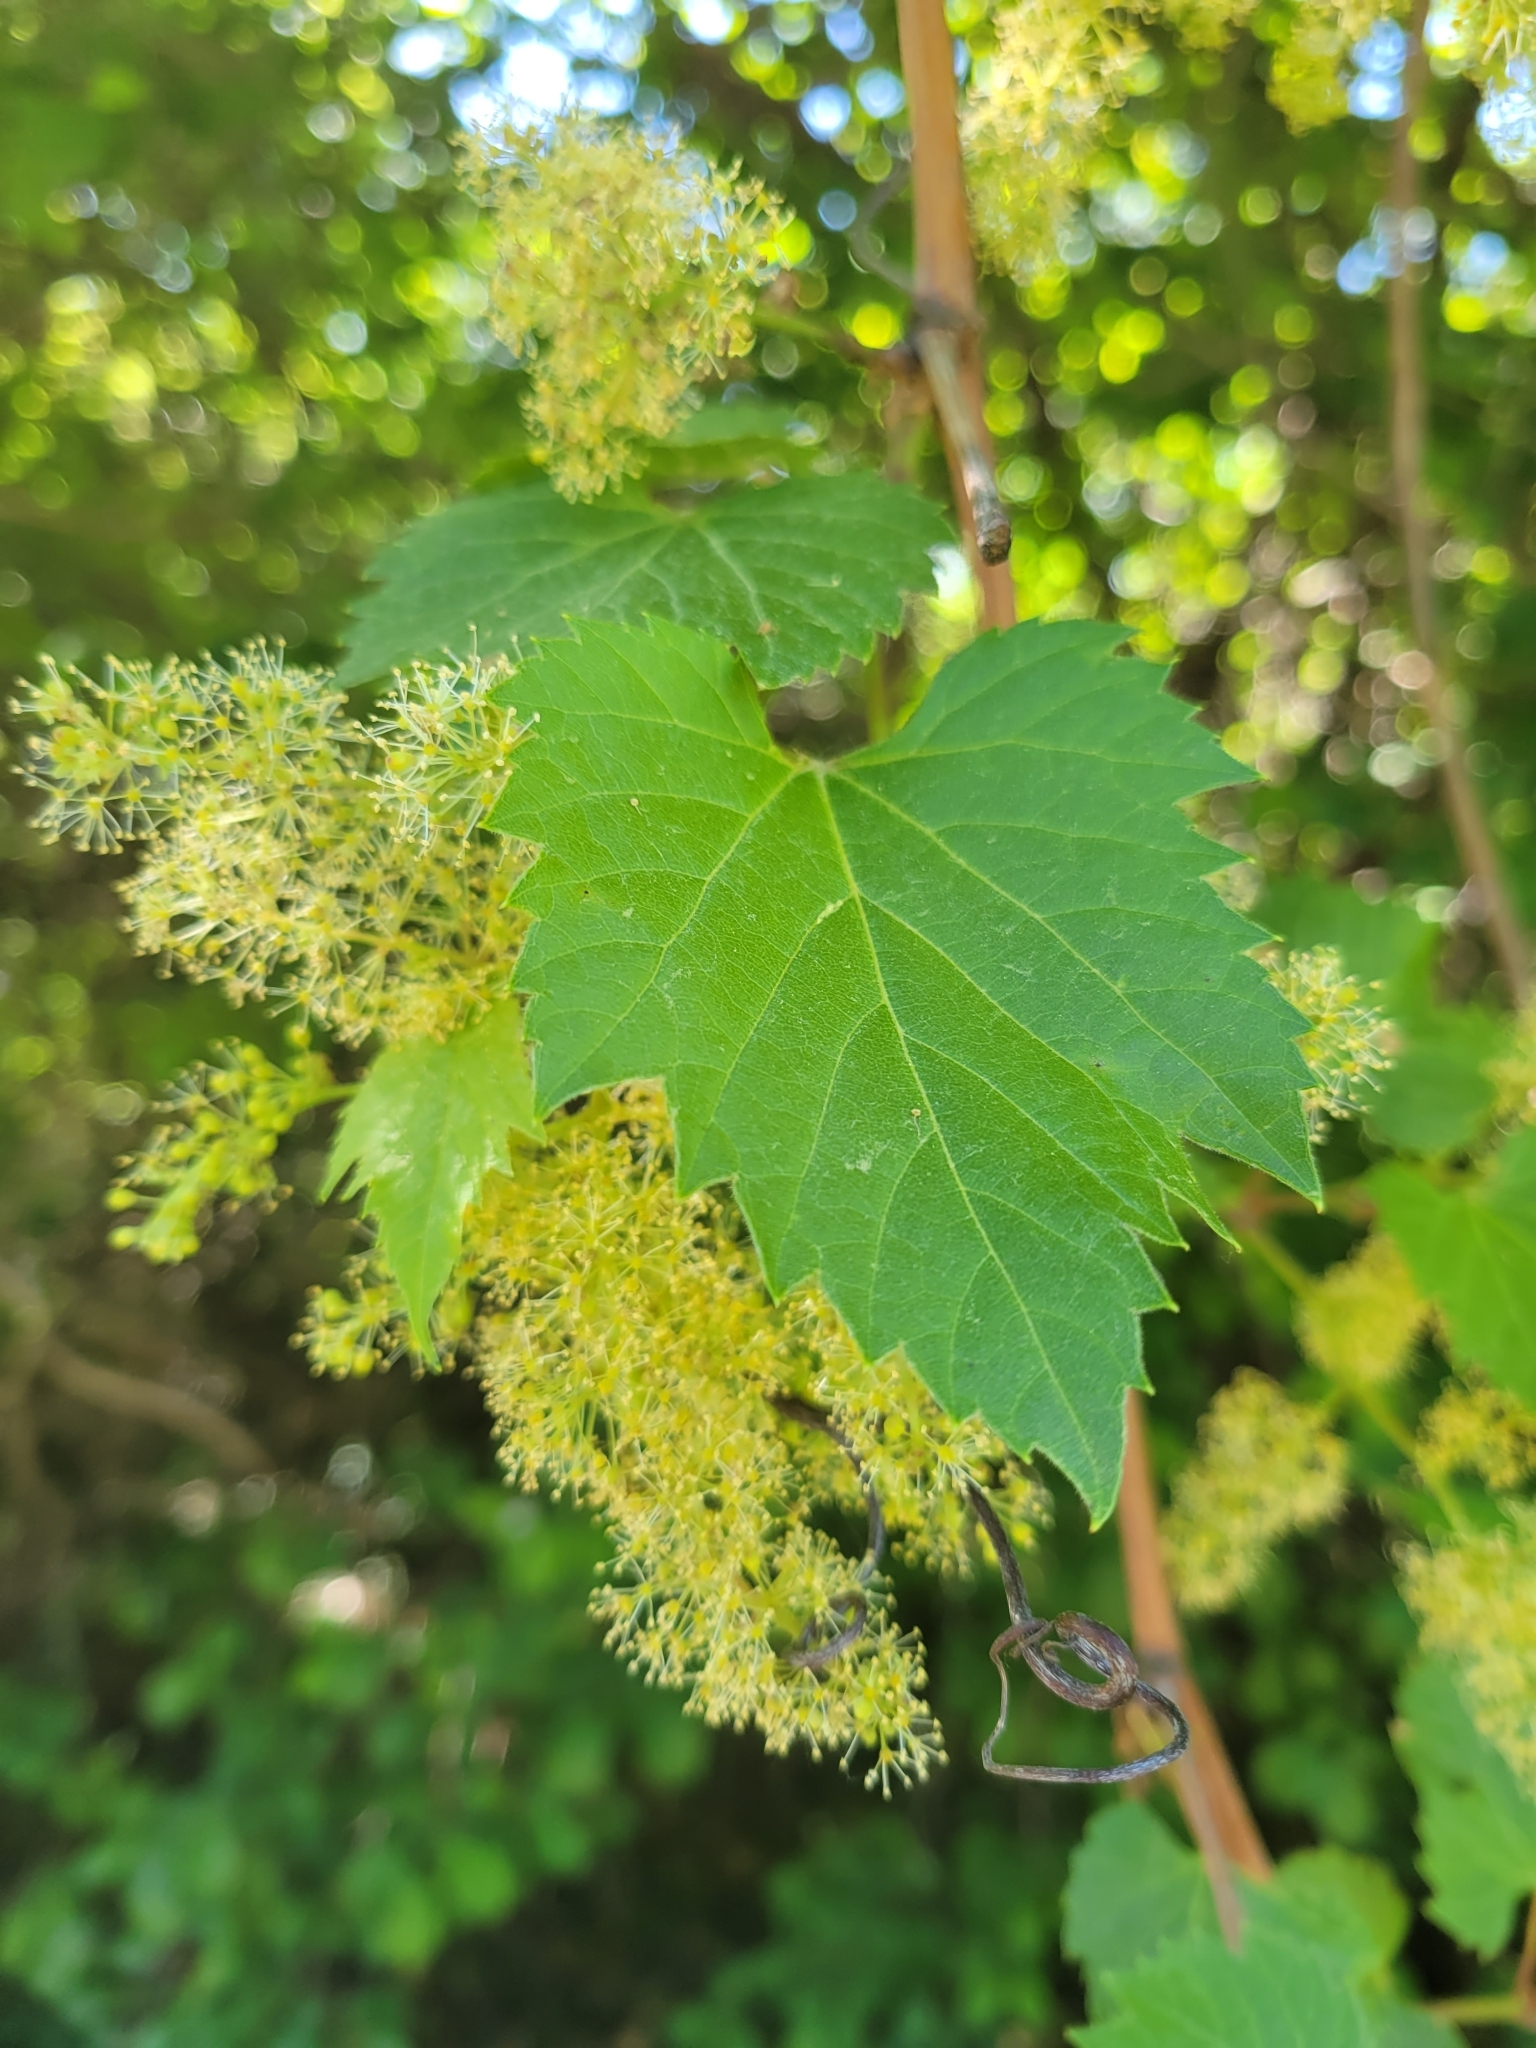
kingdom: Plantae
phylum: Tracheophyta
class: Magnoliopsida
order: Vitales
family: Vitaceae
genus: Vitis
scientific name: Vitis riparia
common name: Frost grape
